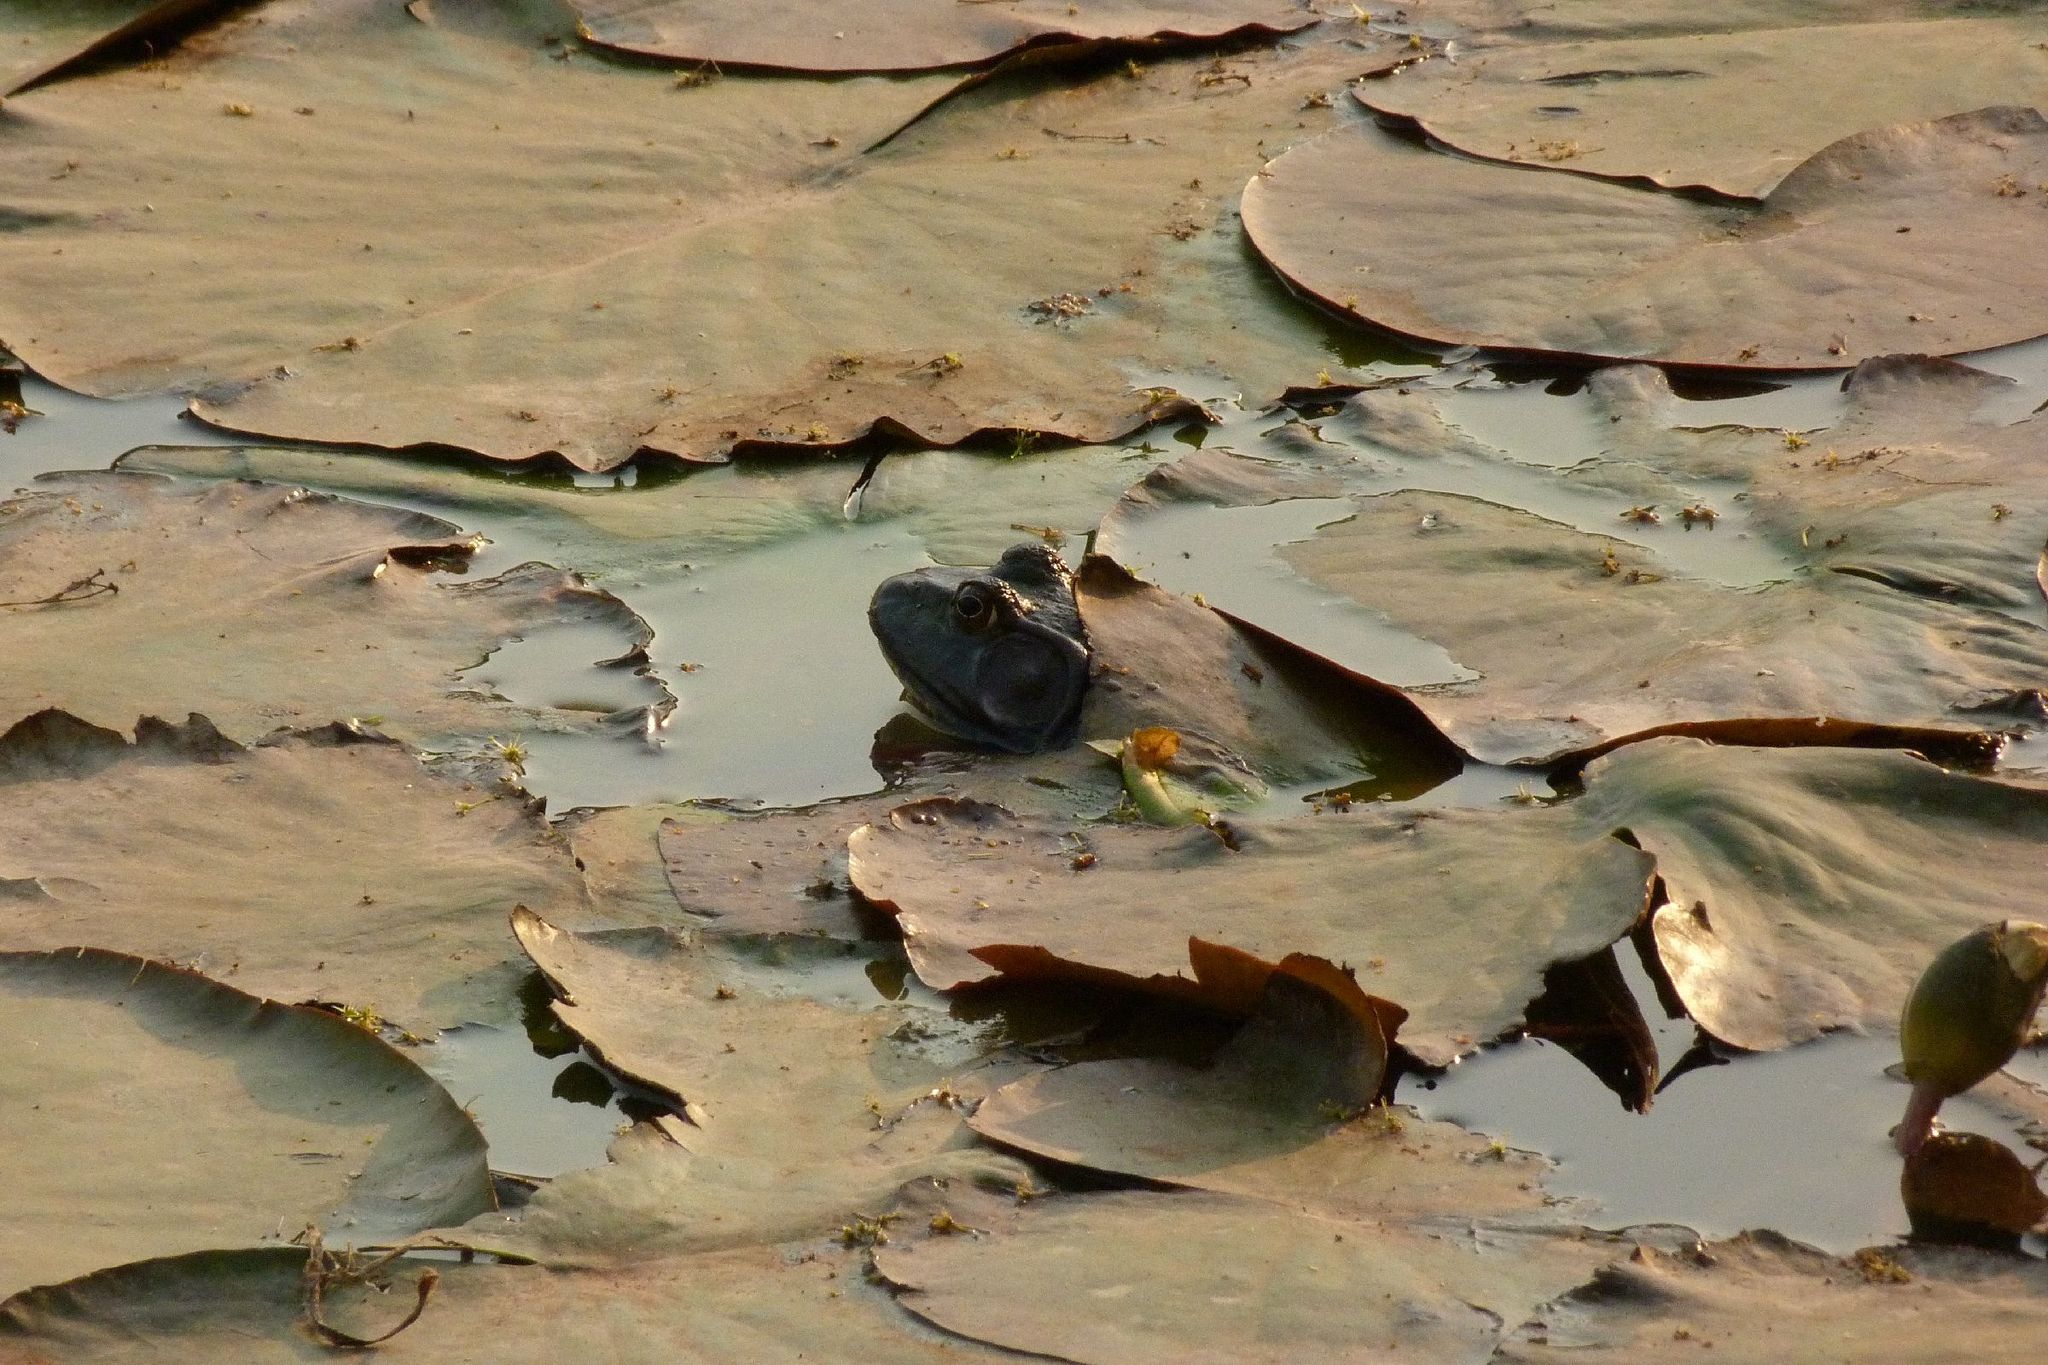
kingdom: Animalia
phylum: Chordata
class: Amphibia
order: Anura
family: Ranidae
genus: Lithobates
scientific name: Lithobates catesbeianus
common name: American bullfrog
